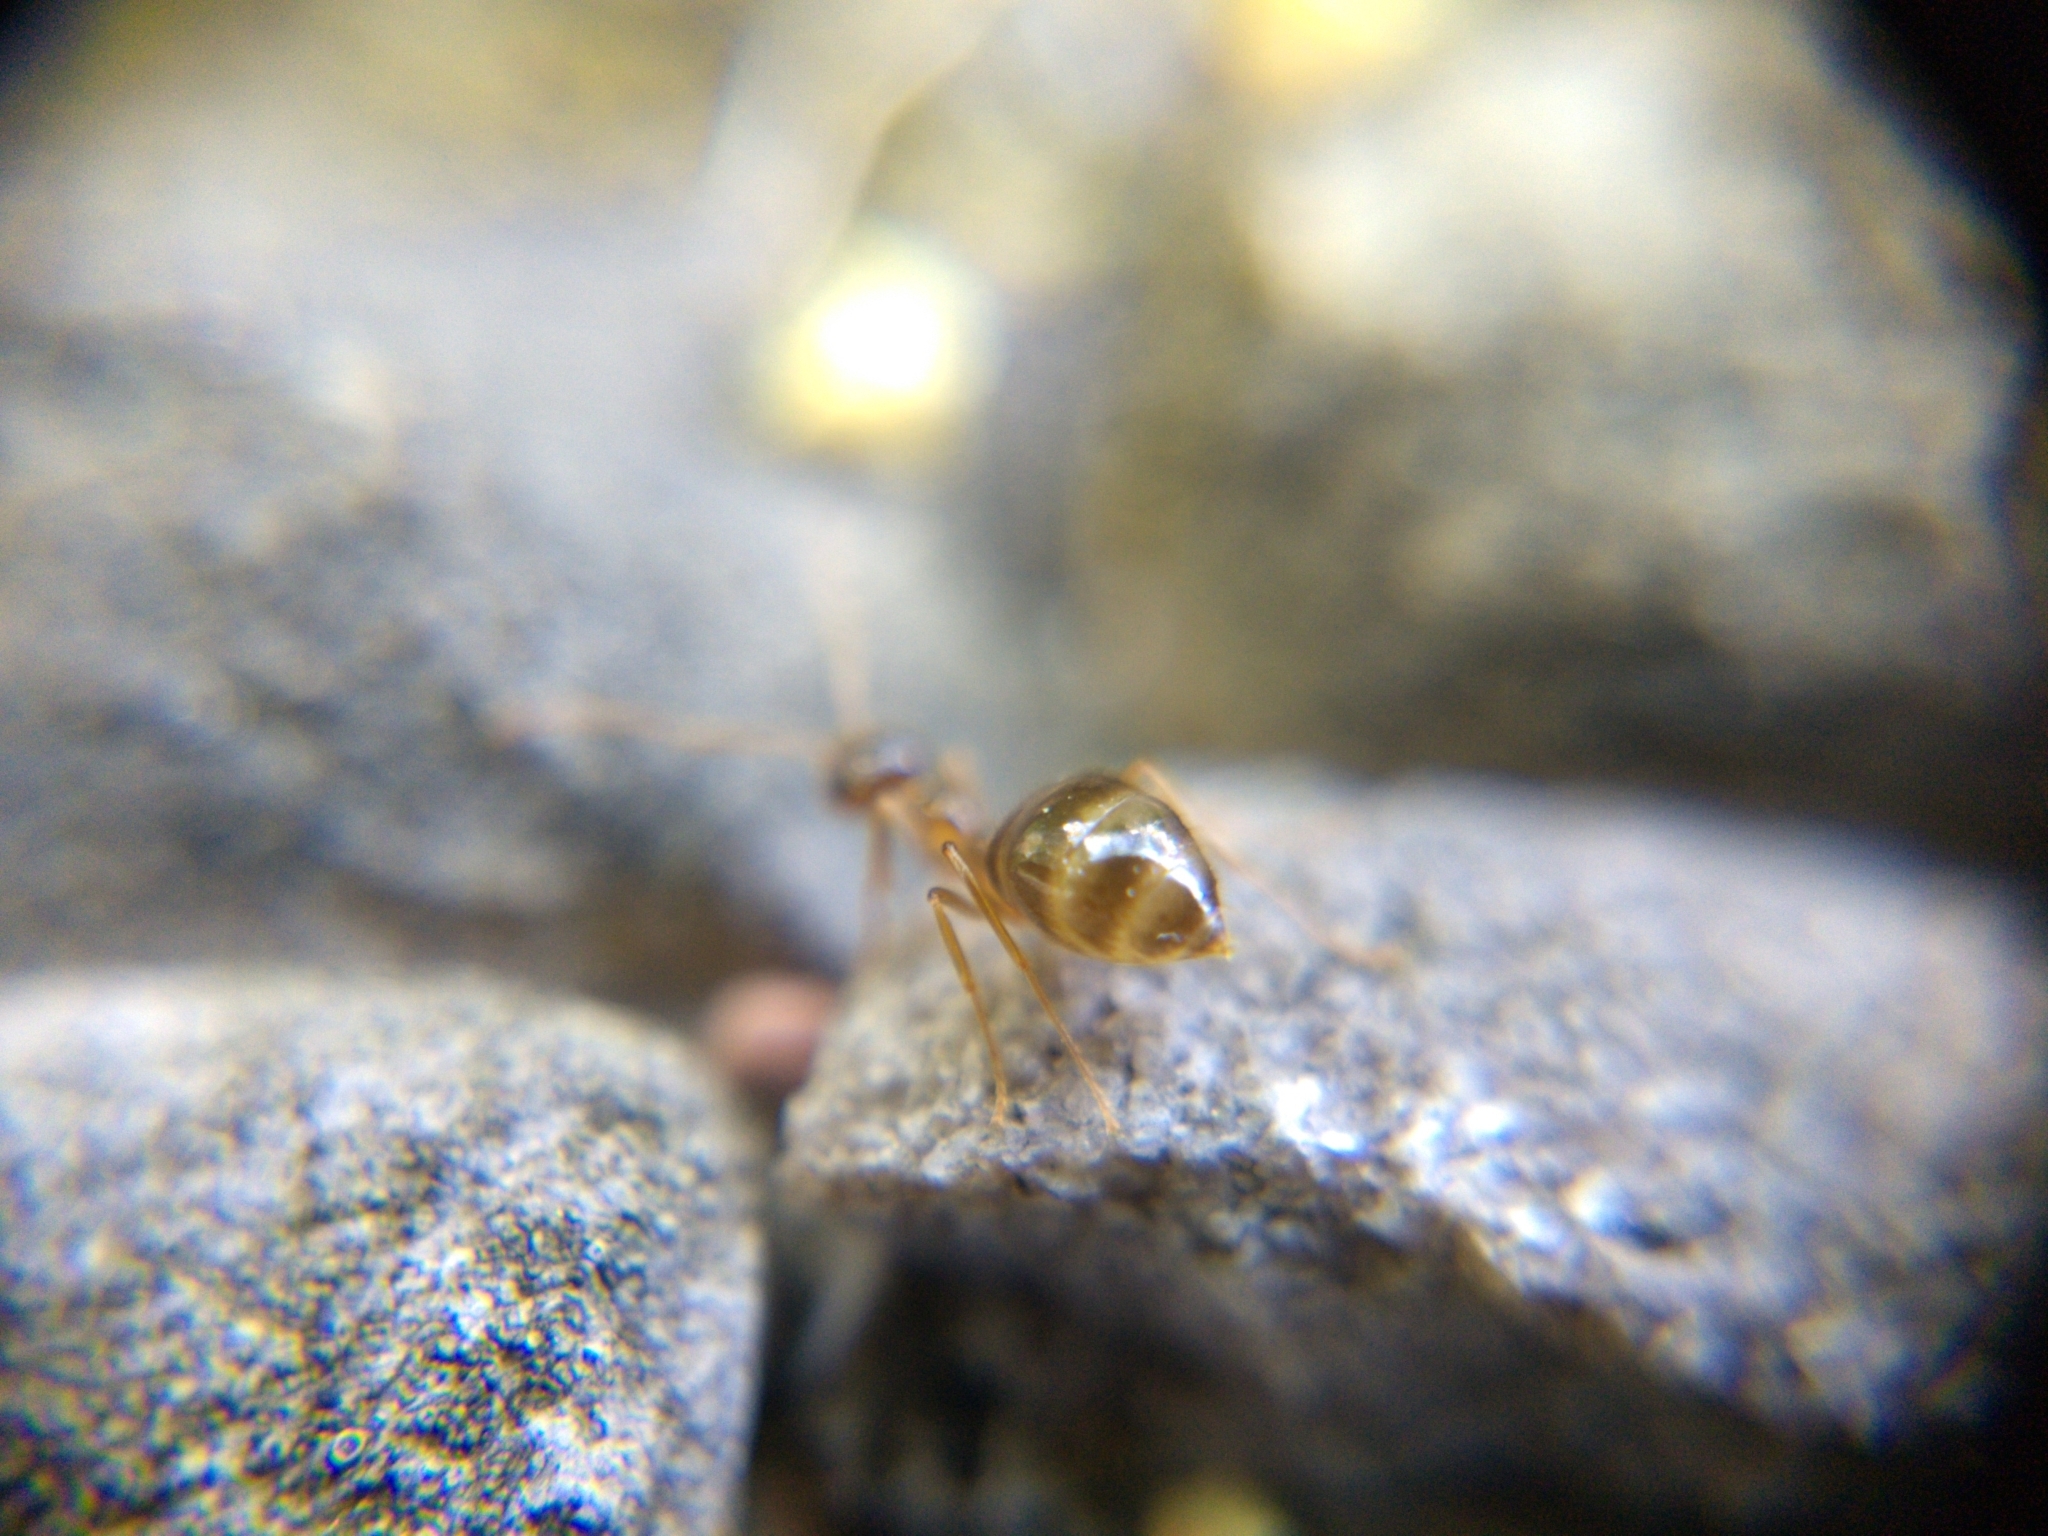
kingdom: Animalia
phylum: Arthropoda
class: Insecta
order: Hymenoptera
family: Formicidae
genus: Prenolepis
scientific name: Prenolepis imparis
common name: Small honey ant
